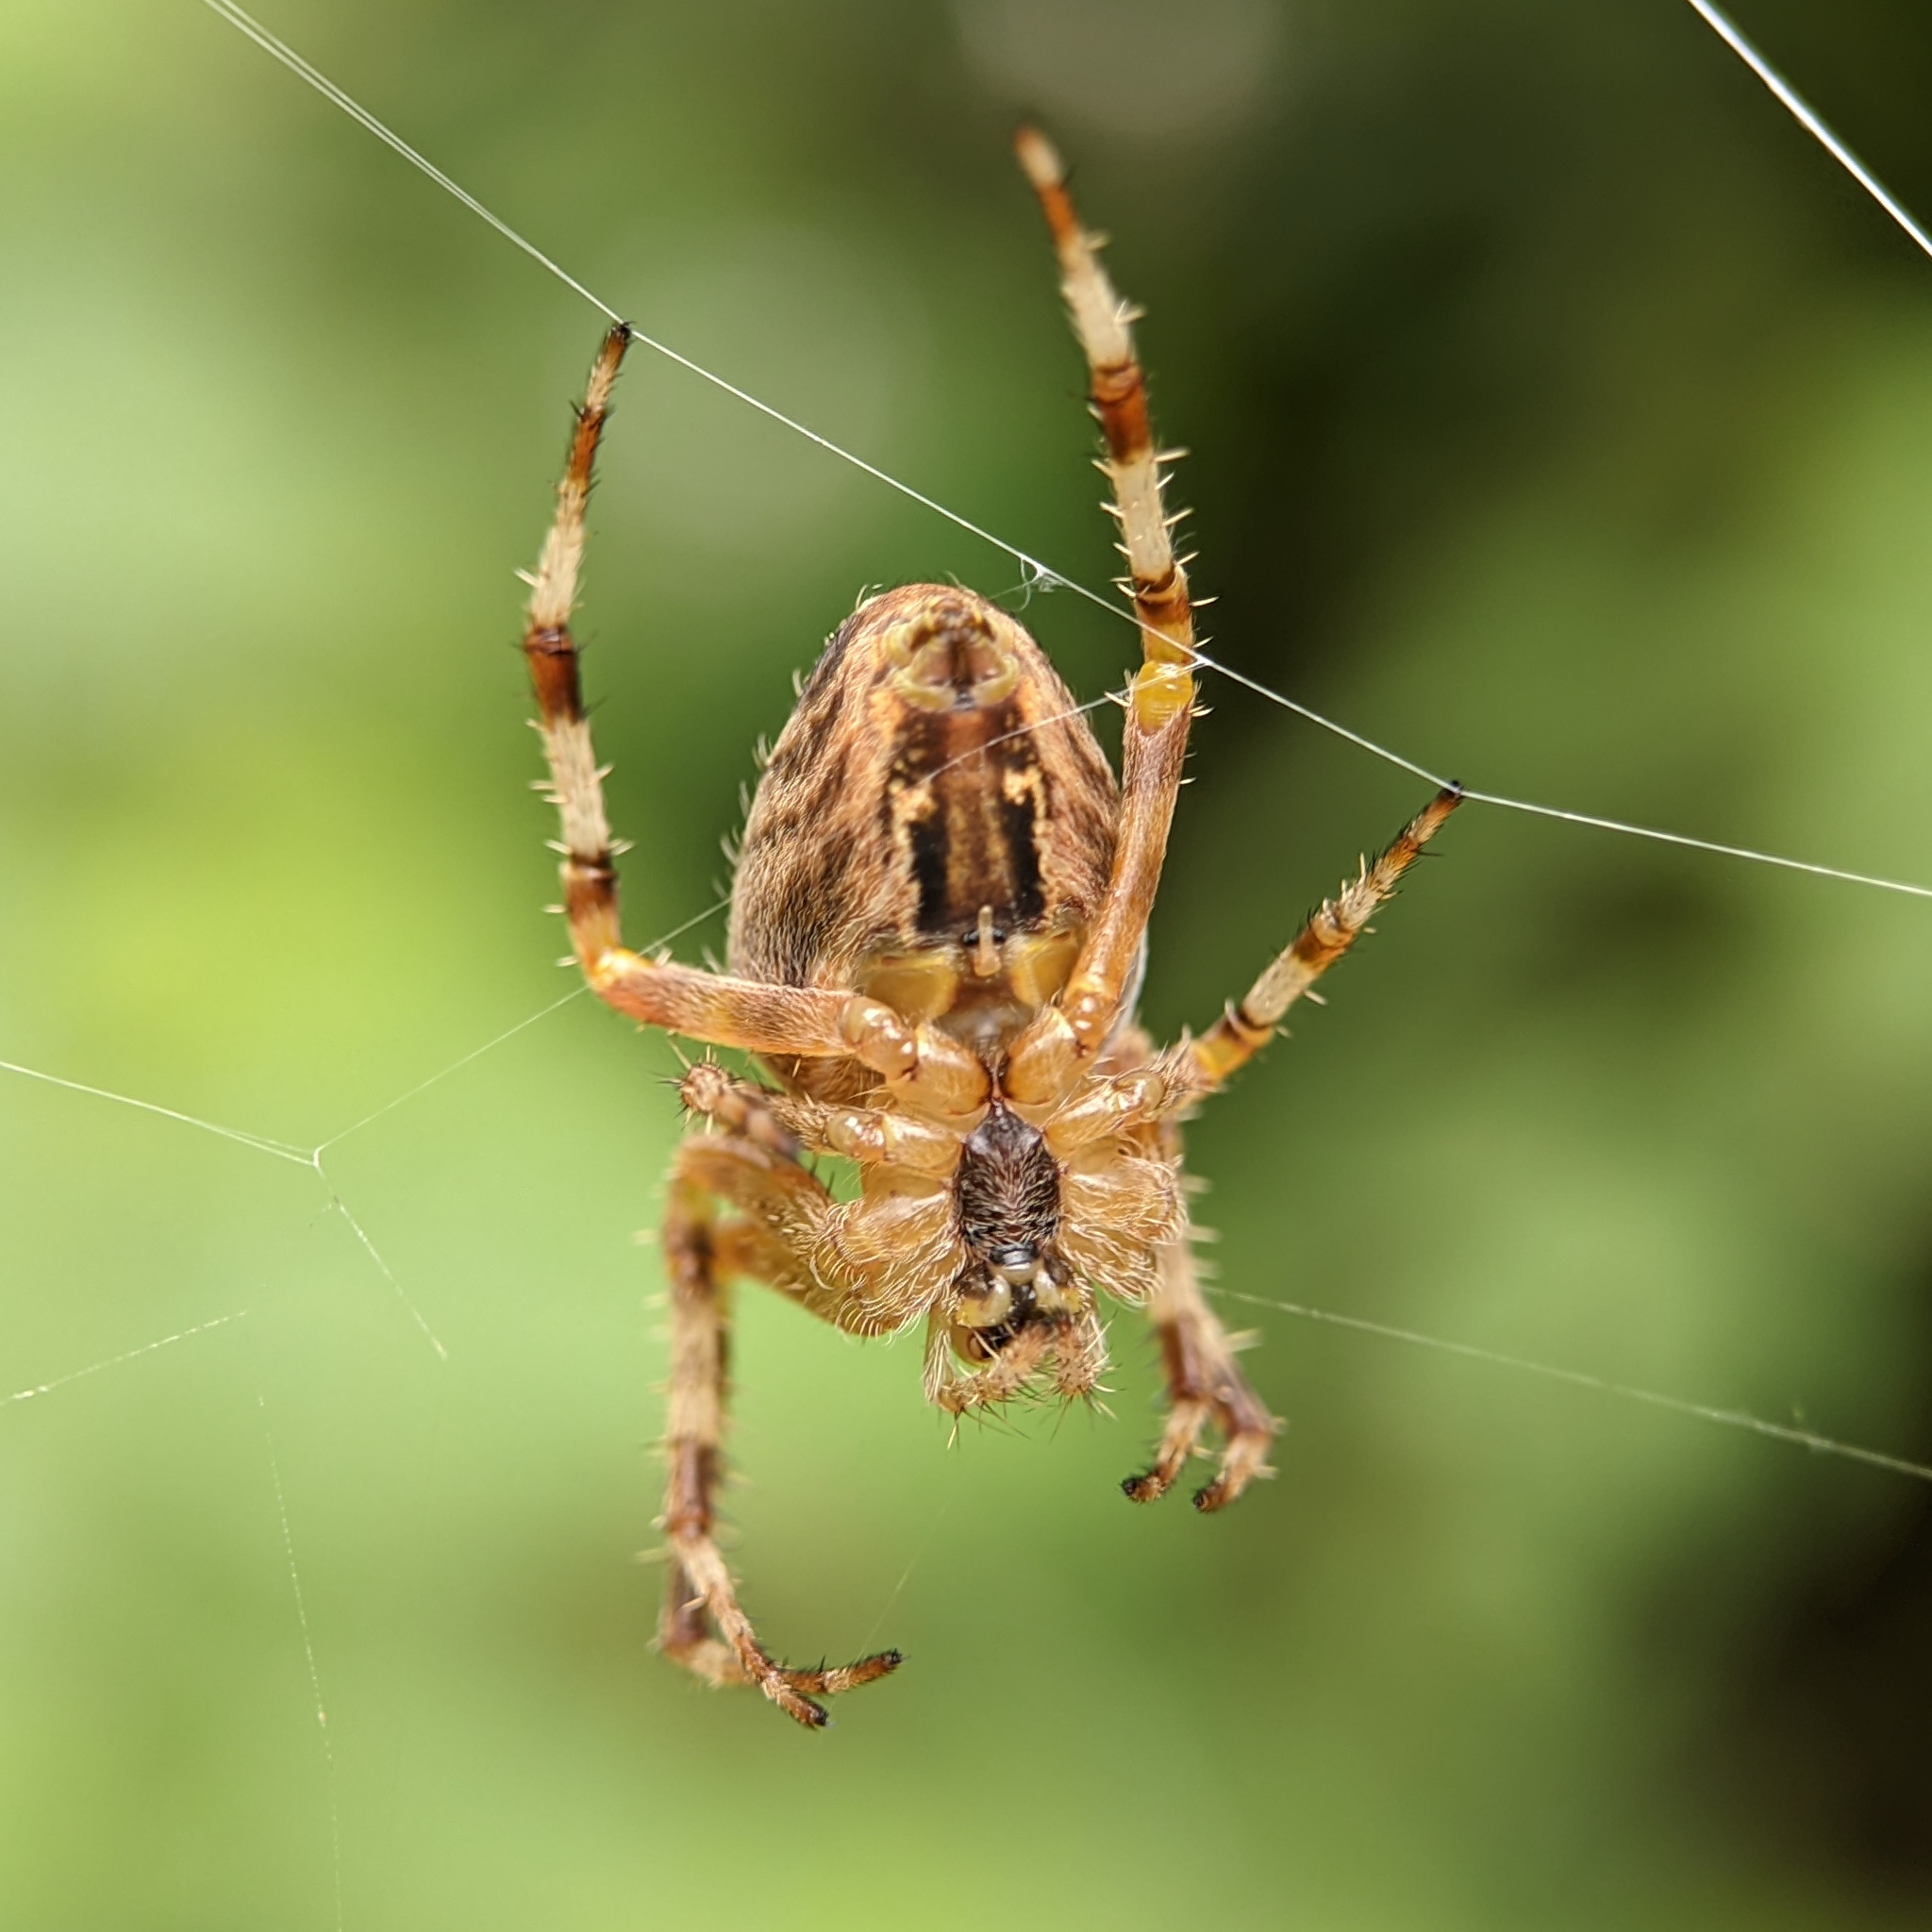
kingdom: Animalia
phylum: Arthropoda
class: Arachnida
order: Araneae
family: Araneidae
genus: Araneus
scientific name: Araneus diadematus
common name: Cross orbweaver
